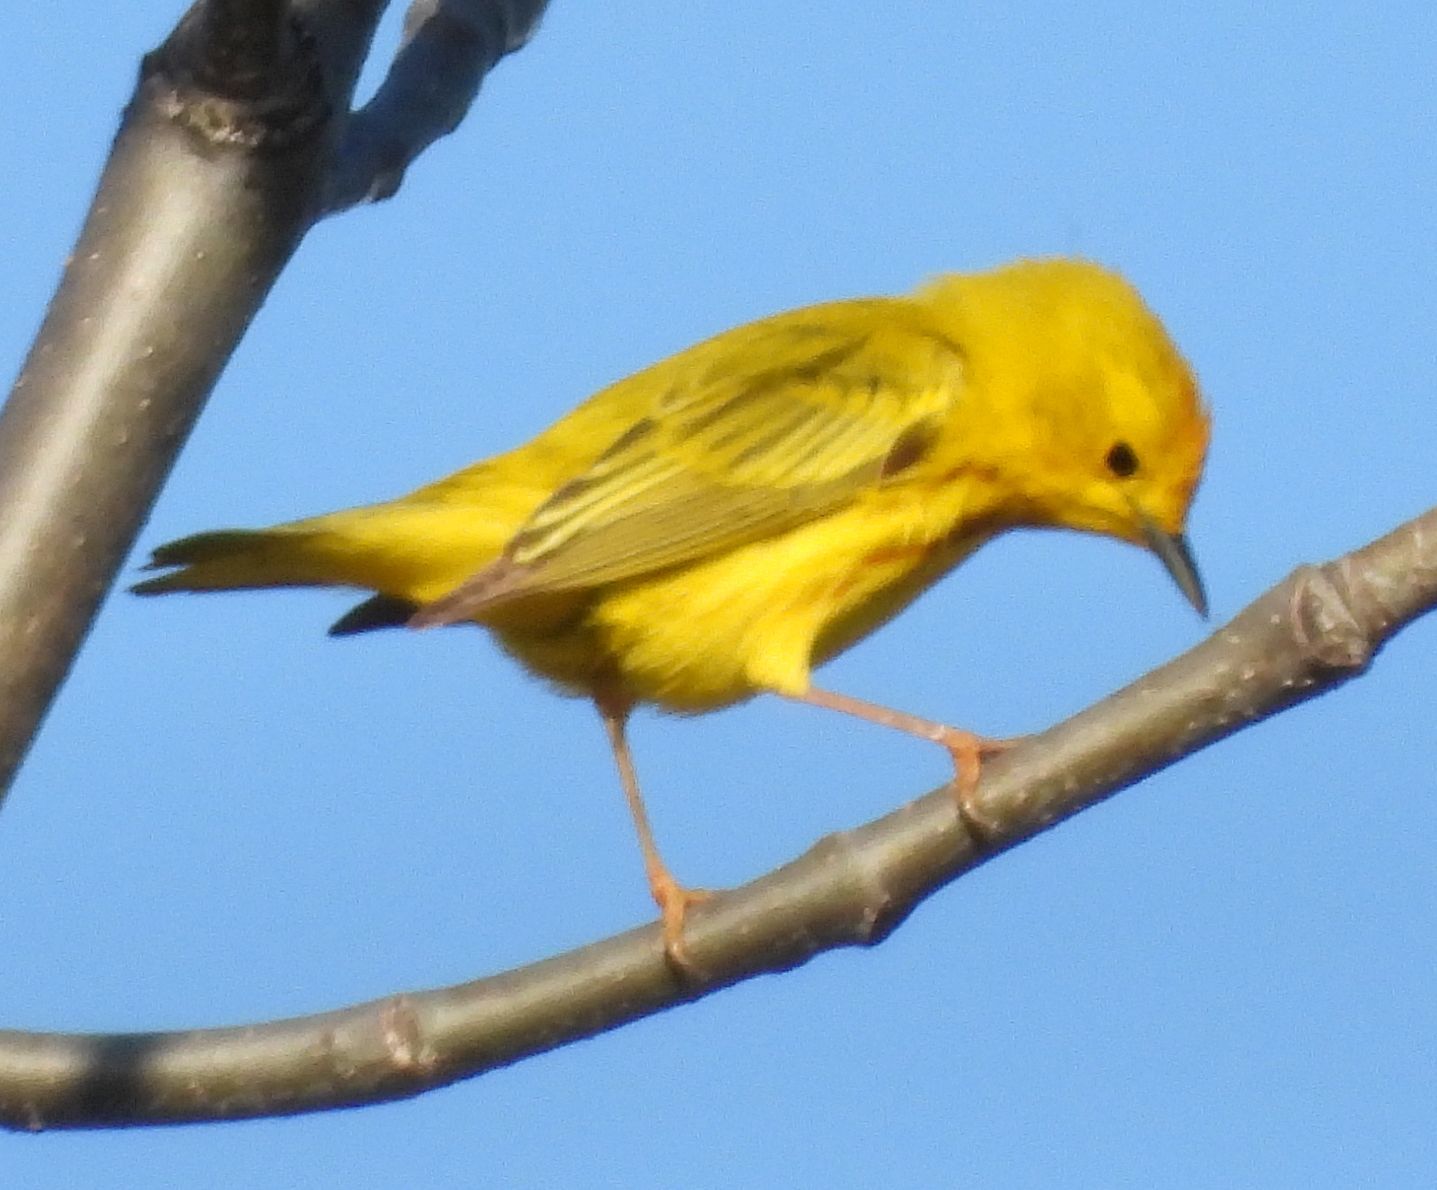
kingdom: Animalia
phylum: Chordata
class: Aves
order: Passeriformes
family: Parulidae
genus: Setophaga
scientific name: Setophaga petechia
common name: Yellow warbler
